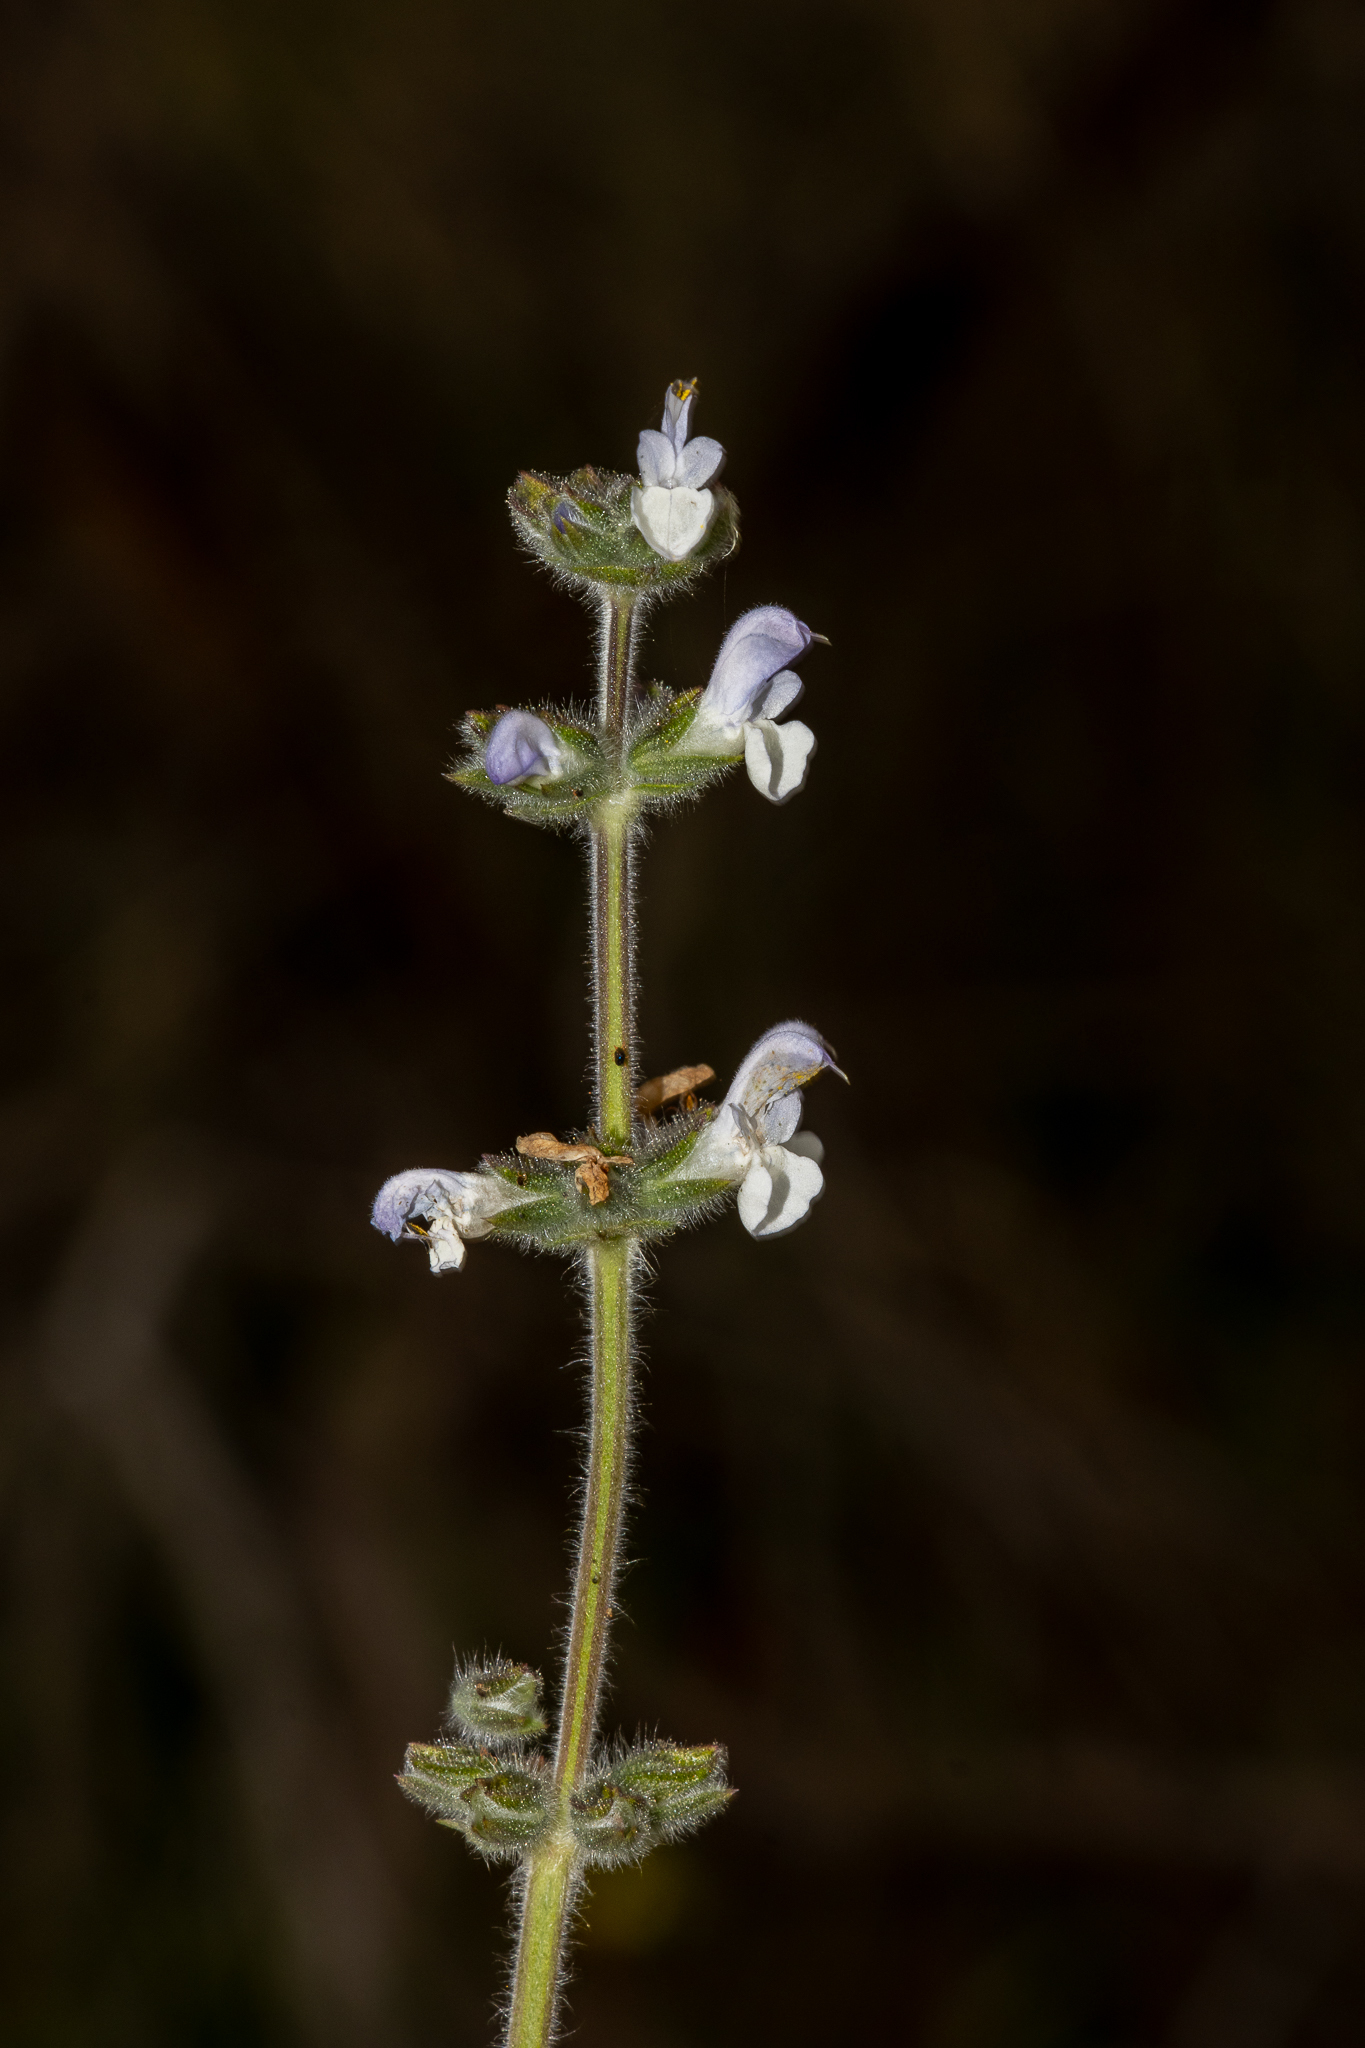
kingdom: Plantae
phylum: Tracheophyta
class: Magnoliopsida
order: Lamiales
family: Lamiaceae
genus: Salvia
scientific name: Salvia verbenaca
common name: Wild clary
